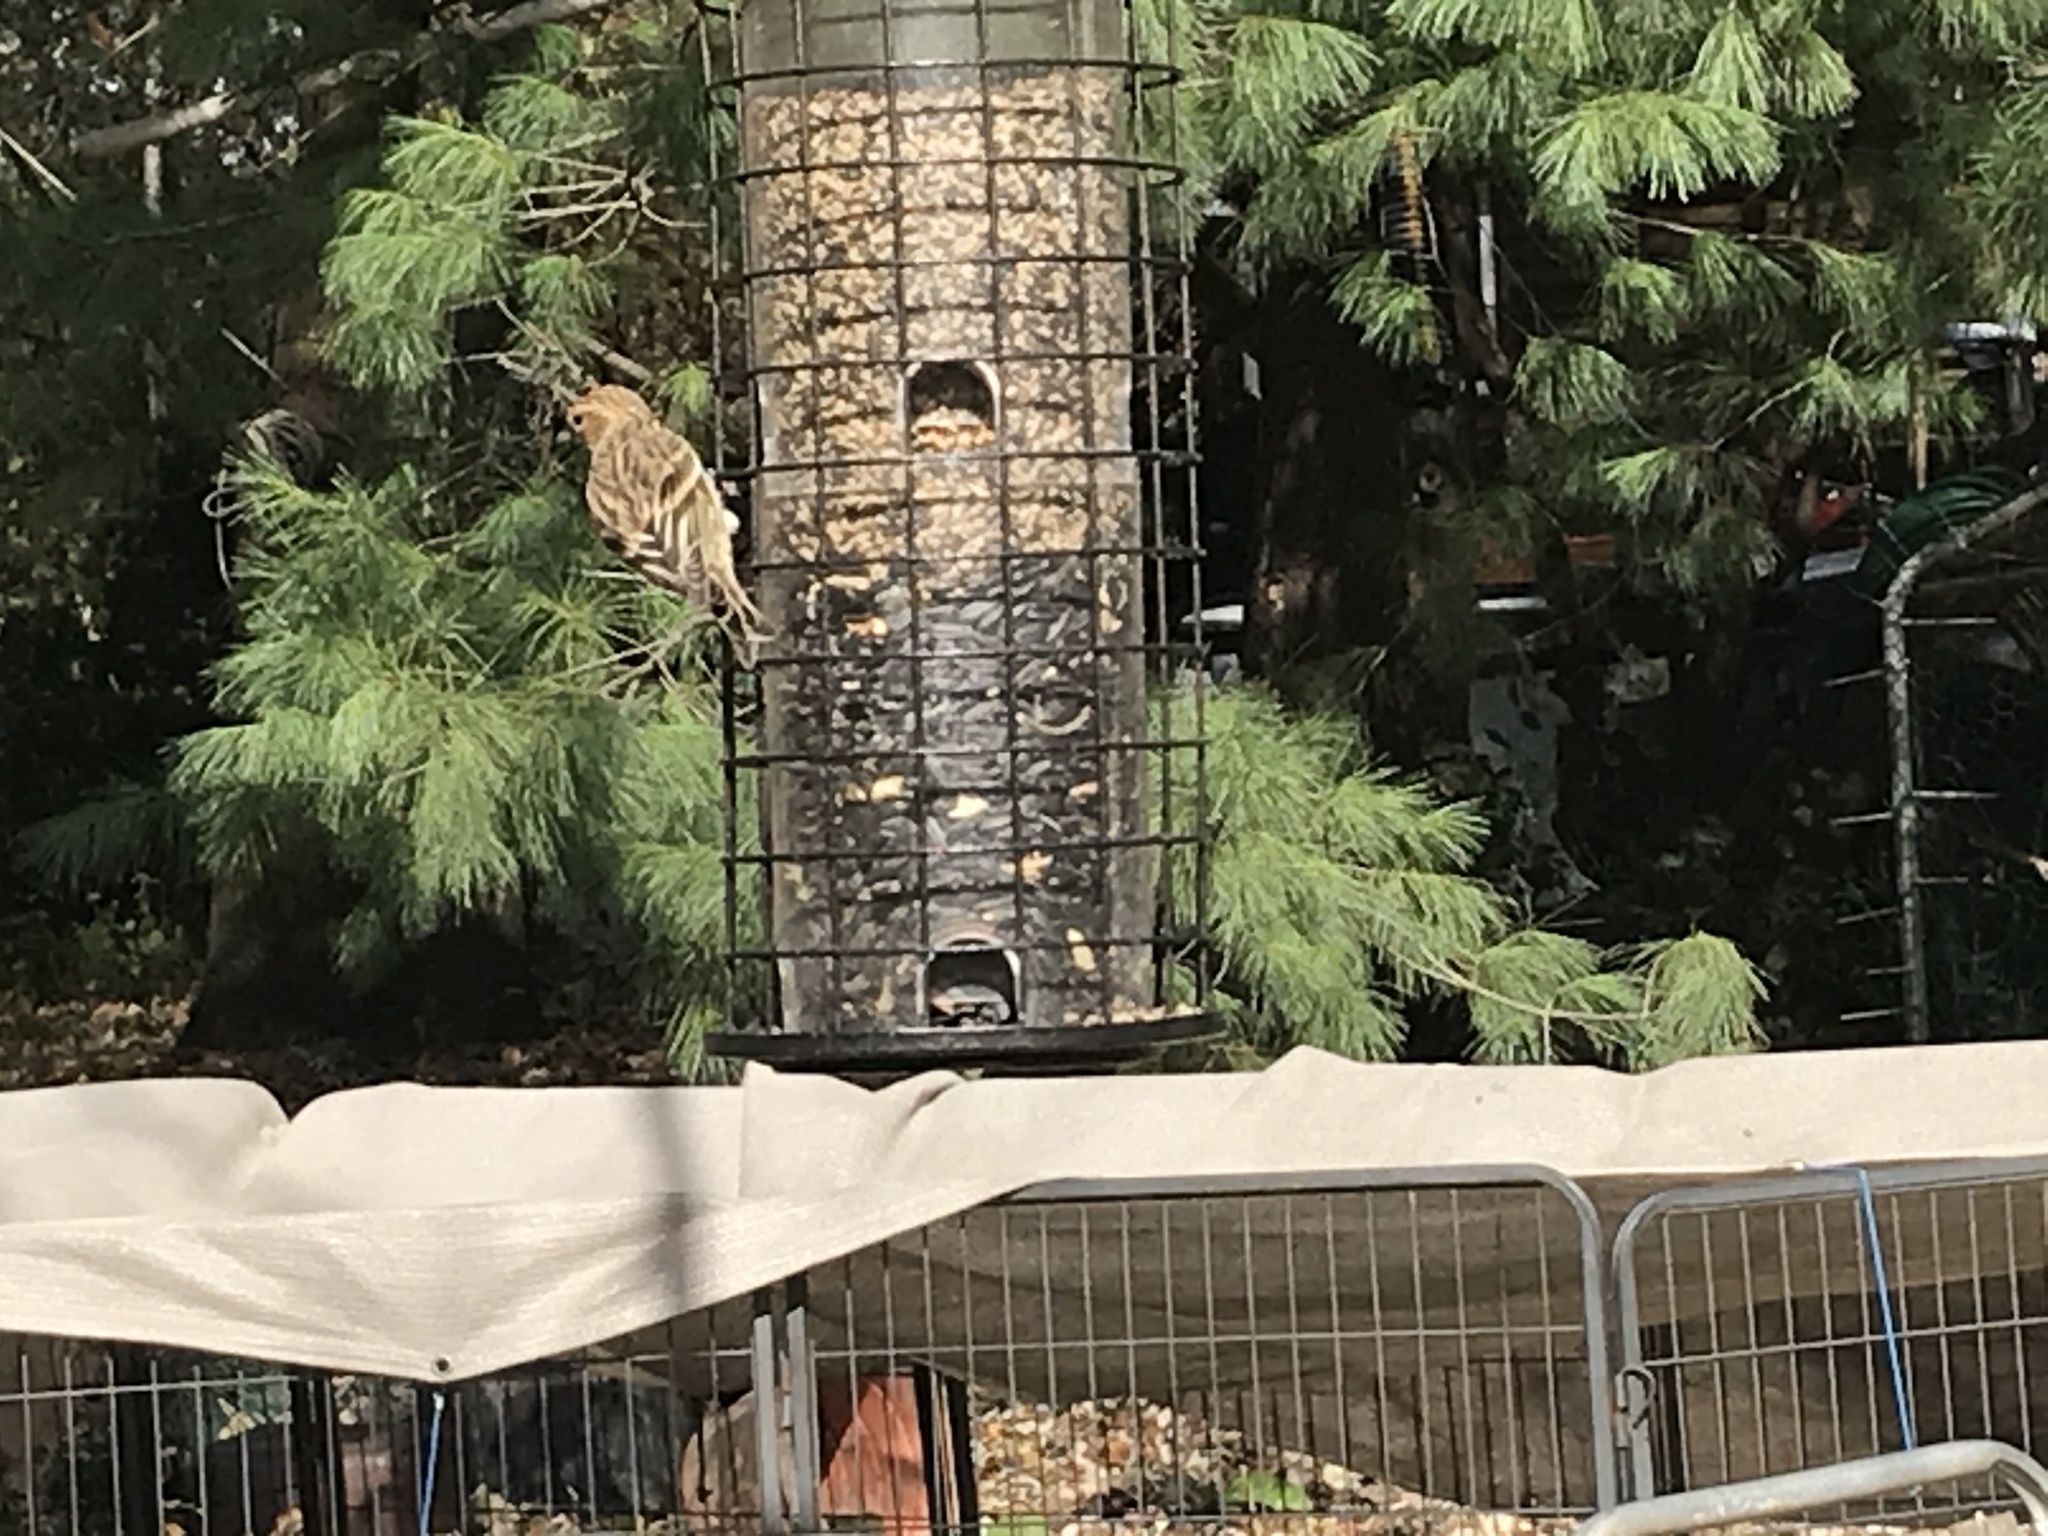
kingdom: Animalia
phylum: Chordata
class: Aves
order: Passeriformes
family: Fringillidae
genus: Spinus
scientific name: Spinus pinus
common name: Pine siskin
